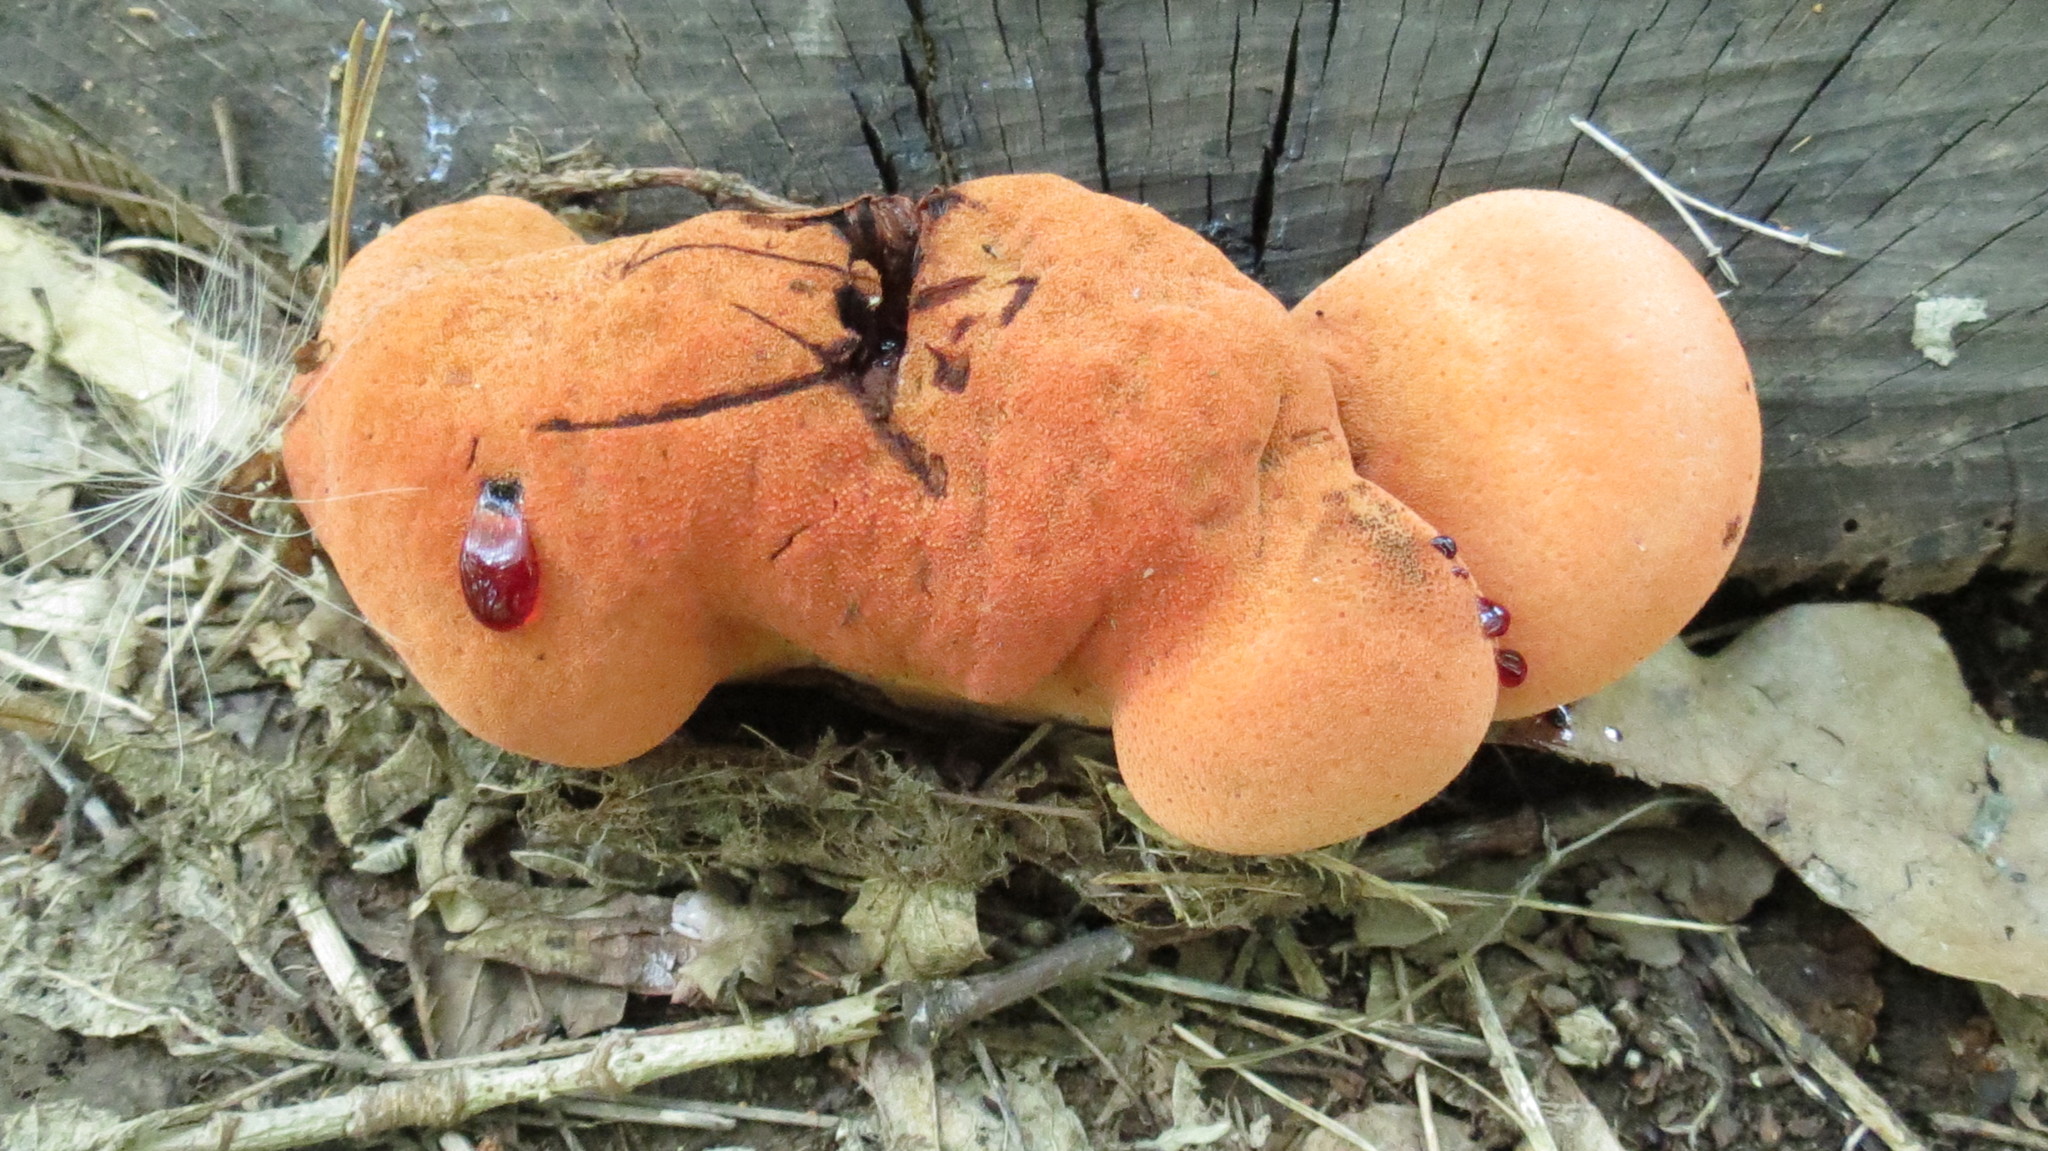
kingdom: Fungi
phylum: Basidiomycota
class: Agaricomycetes
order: Agaricales
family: Fistulinaceae
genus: Fistulina
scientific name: Fistulina hepatica
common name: Beef-steak fungus
